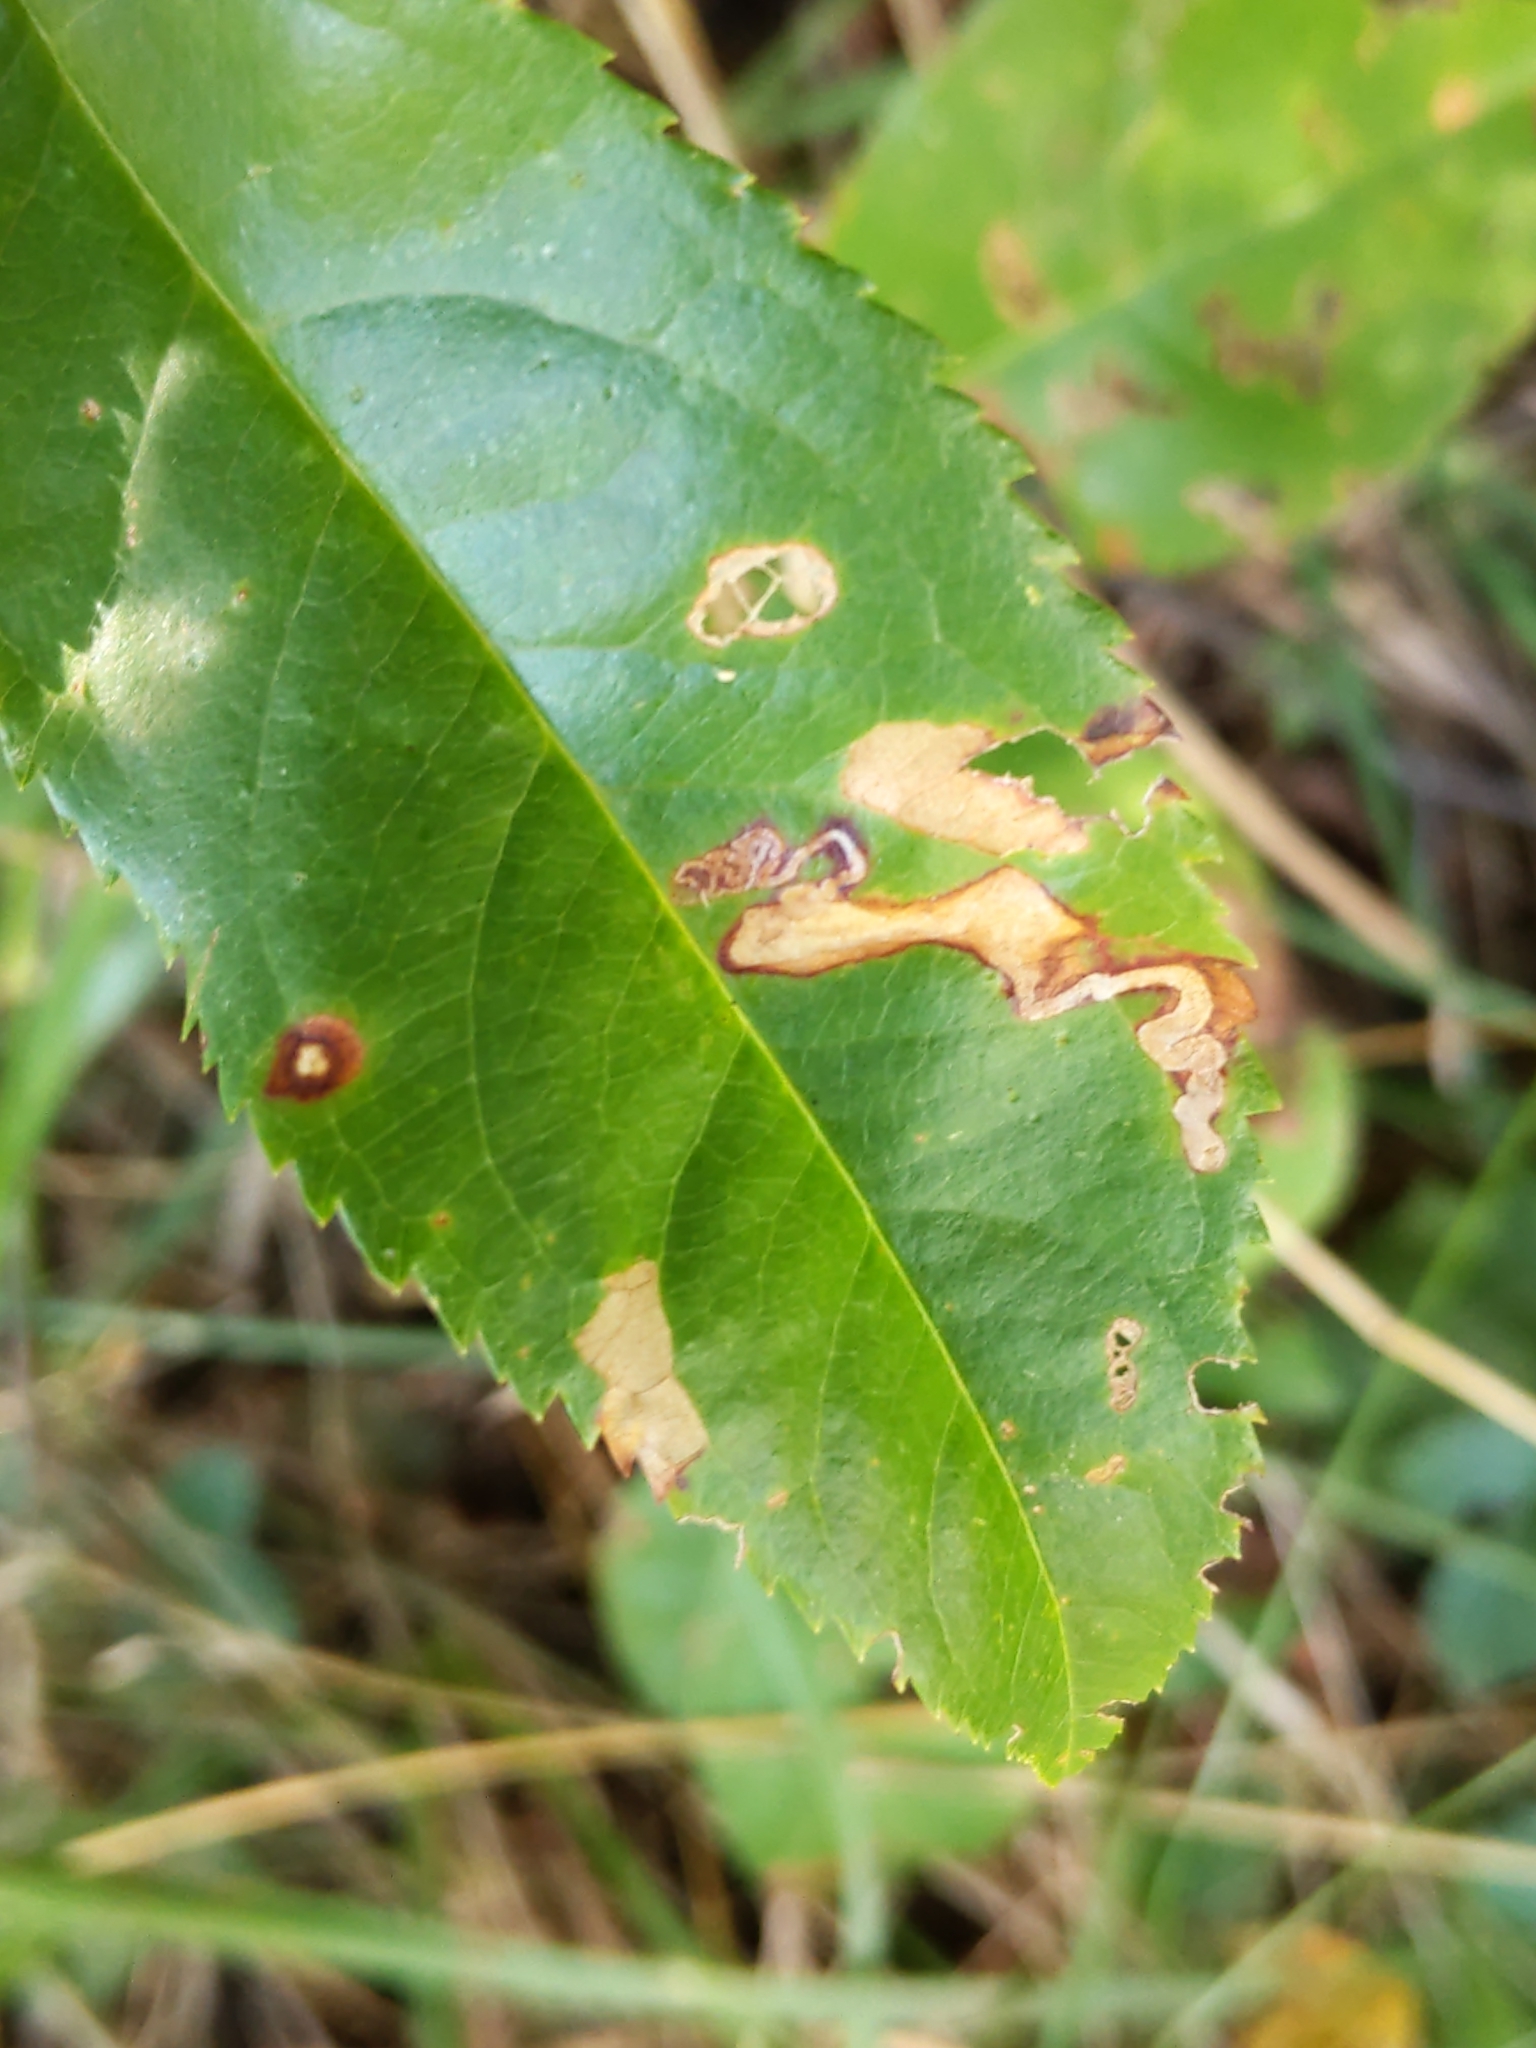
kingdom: Animalia
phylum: Arthropoda
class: Insecta
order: Lepidoptera
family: Nepticulidae
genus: Stigmella
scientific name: Stigmella prunifoliella
